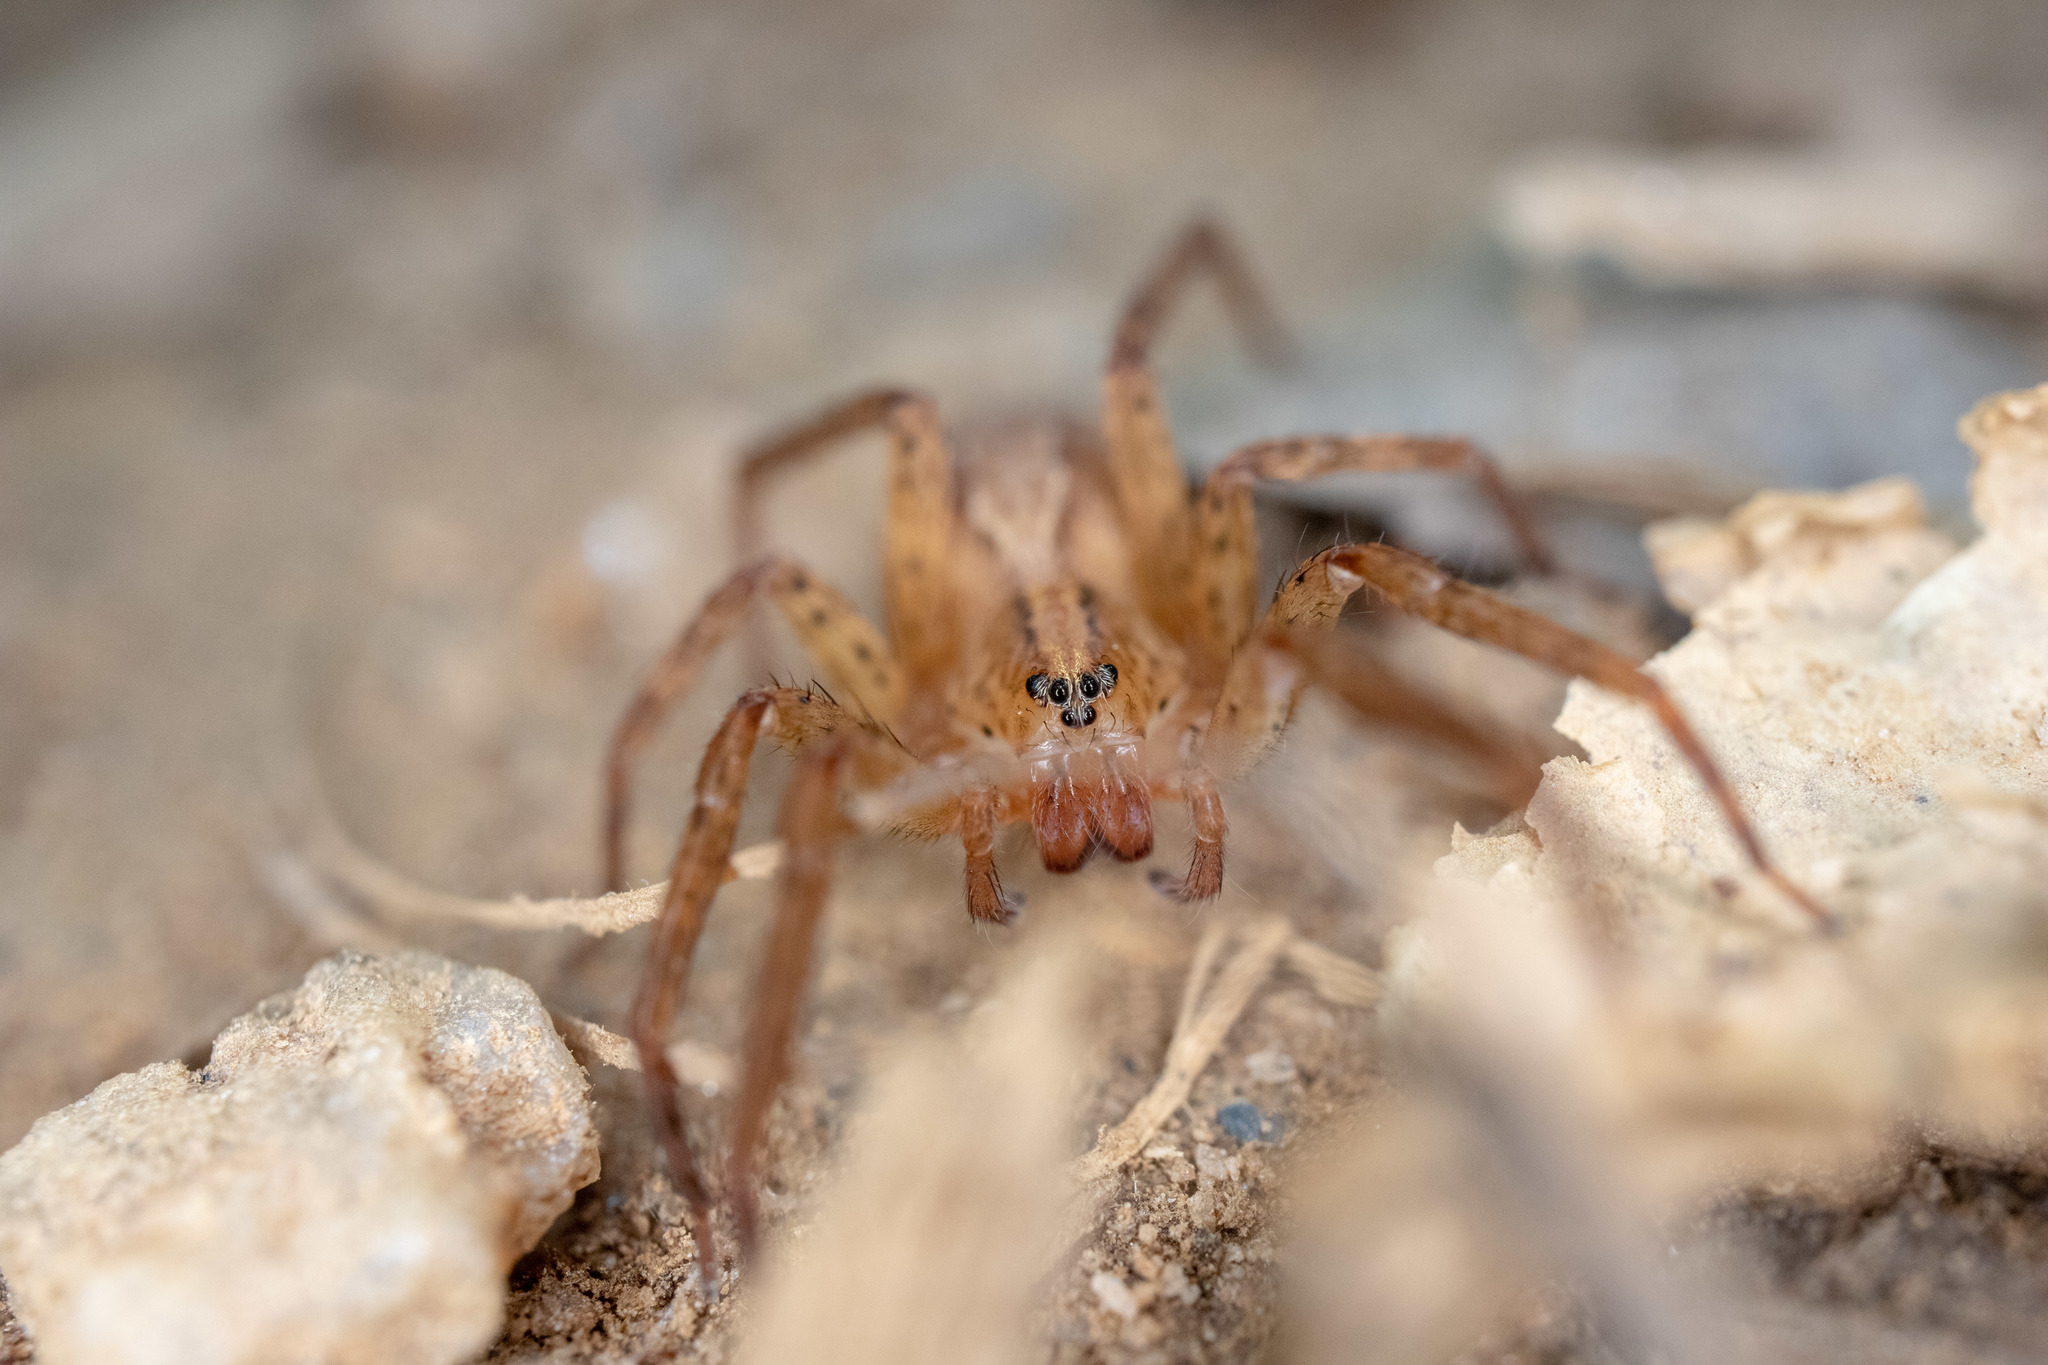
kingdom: Animalia
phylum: Arthropoda
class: Arachnida
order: Araneae
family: Ctenidae
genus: Anahita
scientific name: Anahita punctulata
